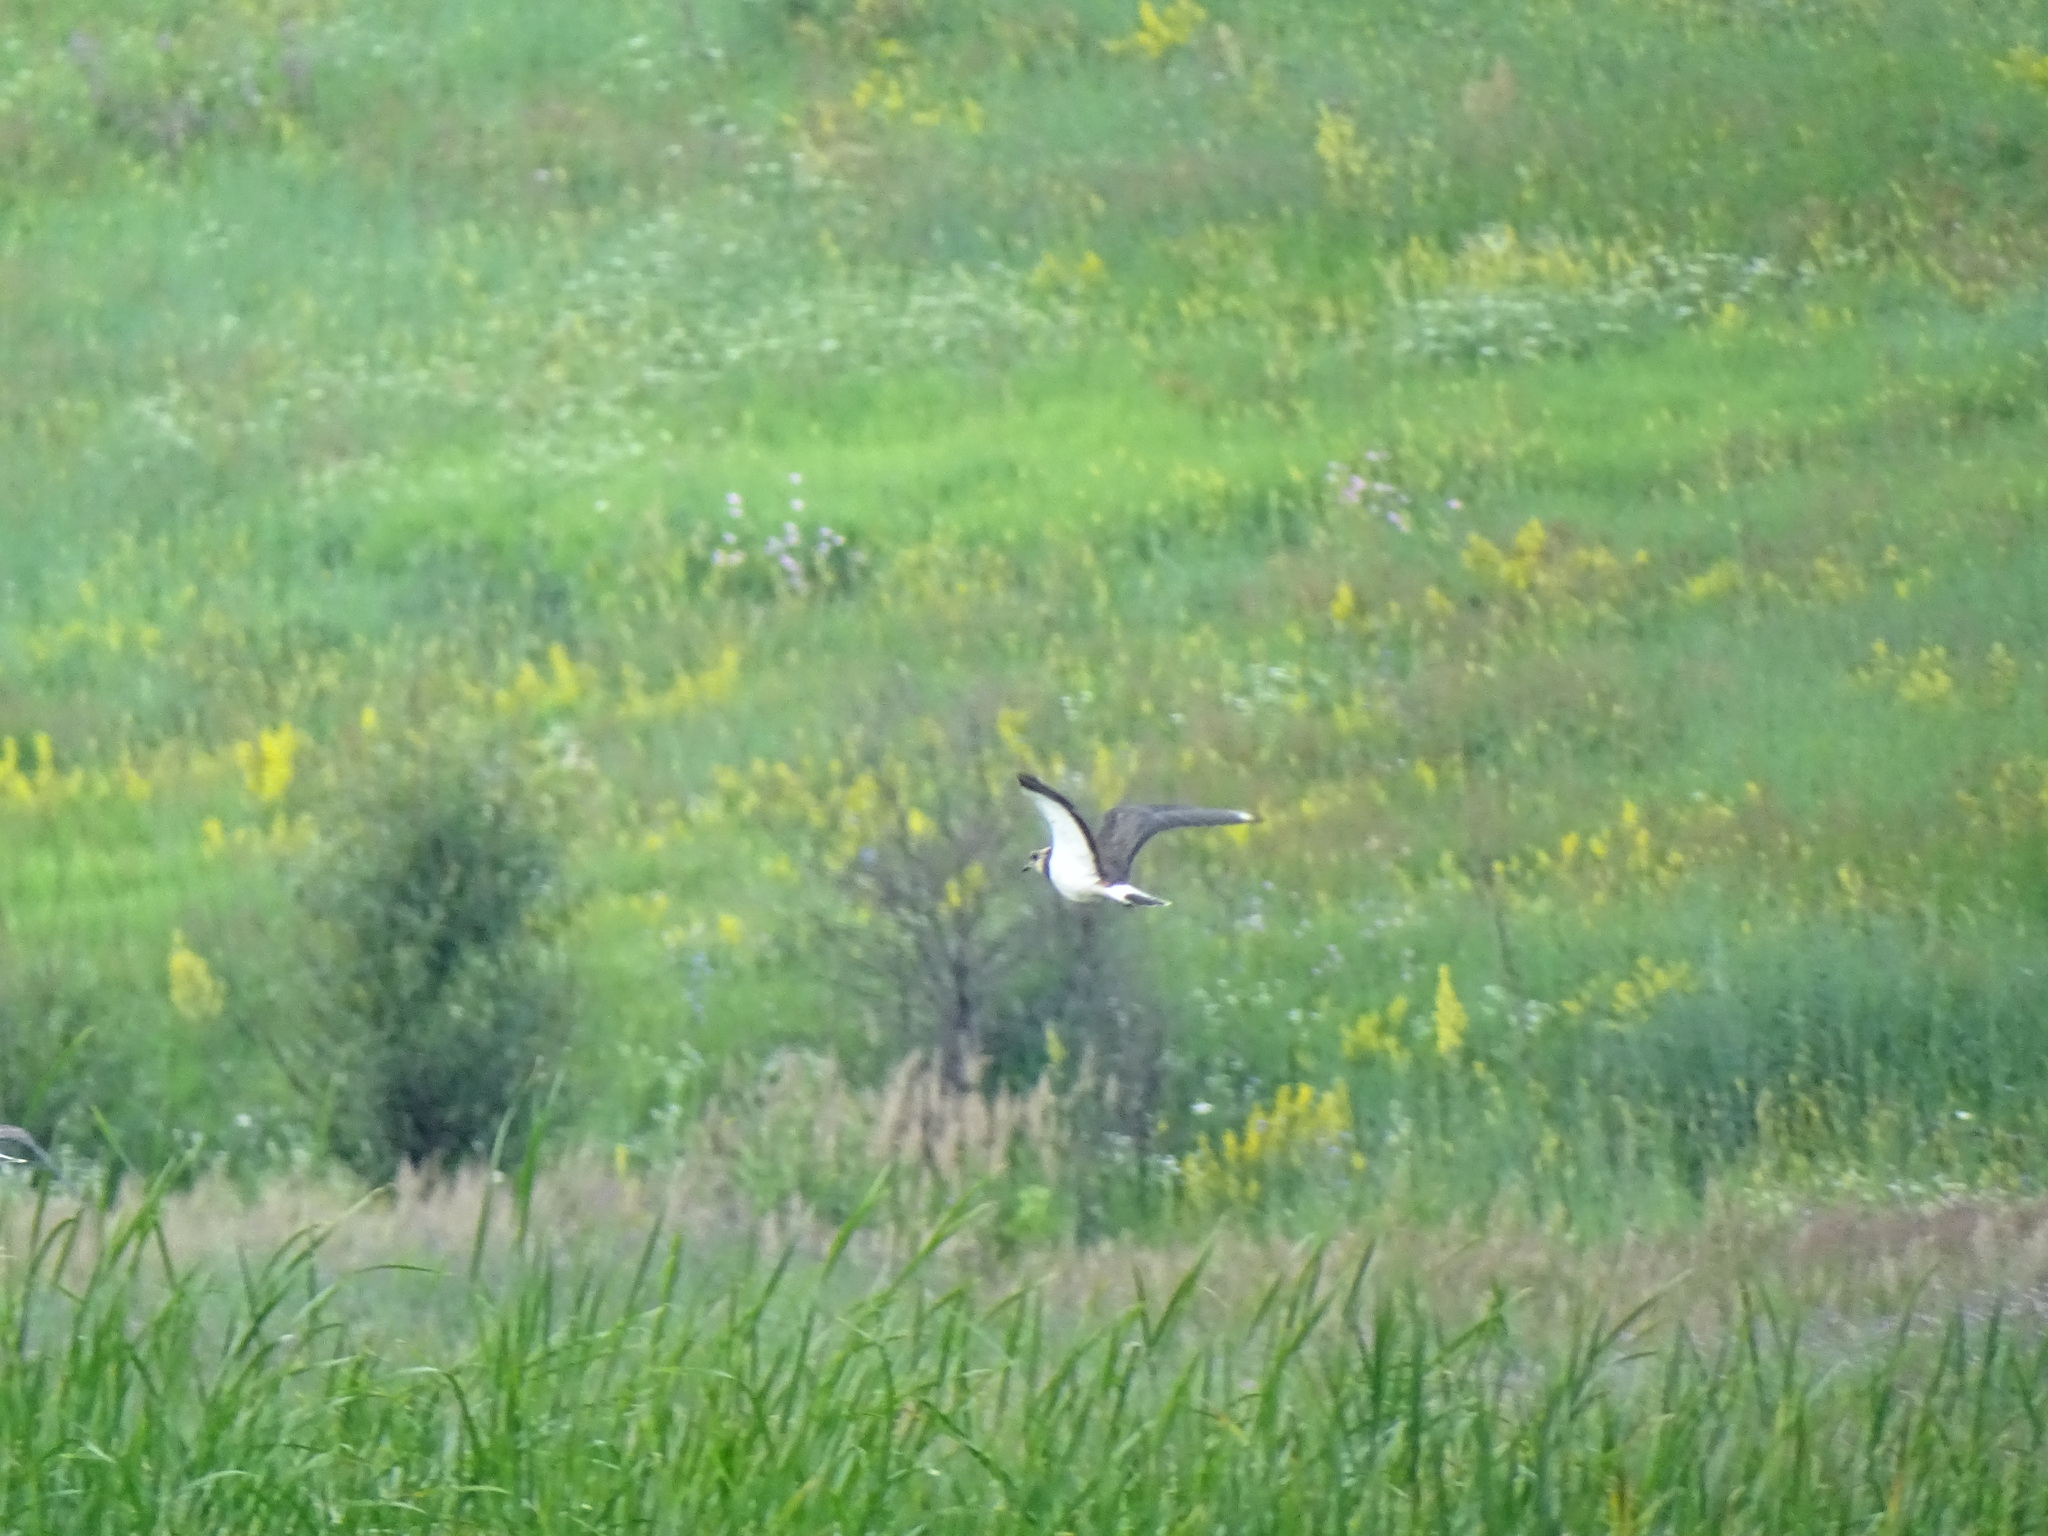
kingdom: Animalia
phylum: Chordata
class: Aves
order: Charadriiformes
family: Charadriidae
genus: Vanellus
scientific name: Vanellus vanellus
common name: Northern lapwing
